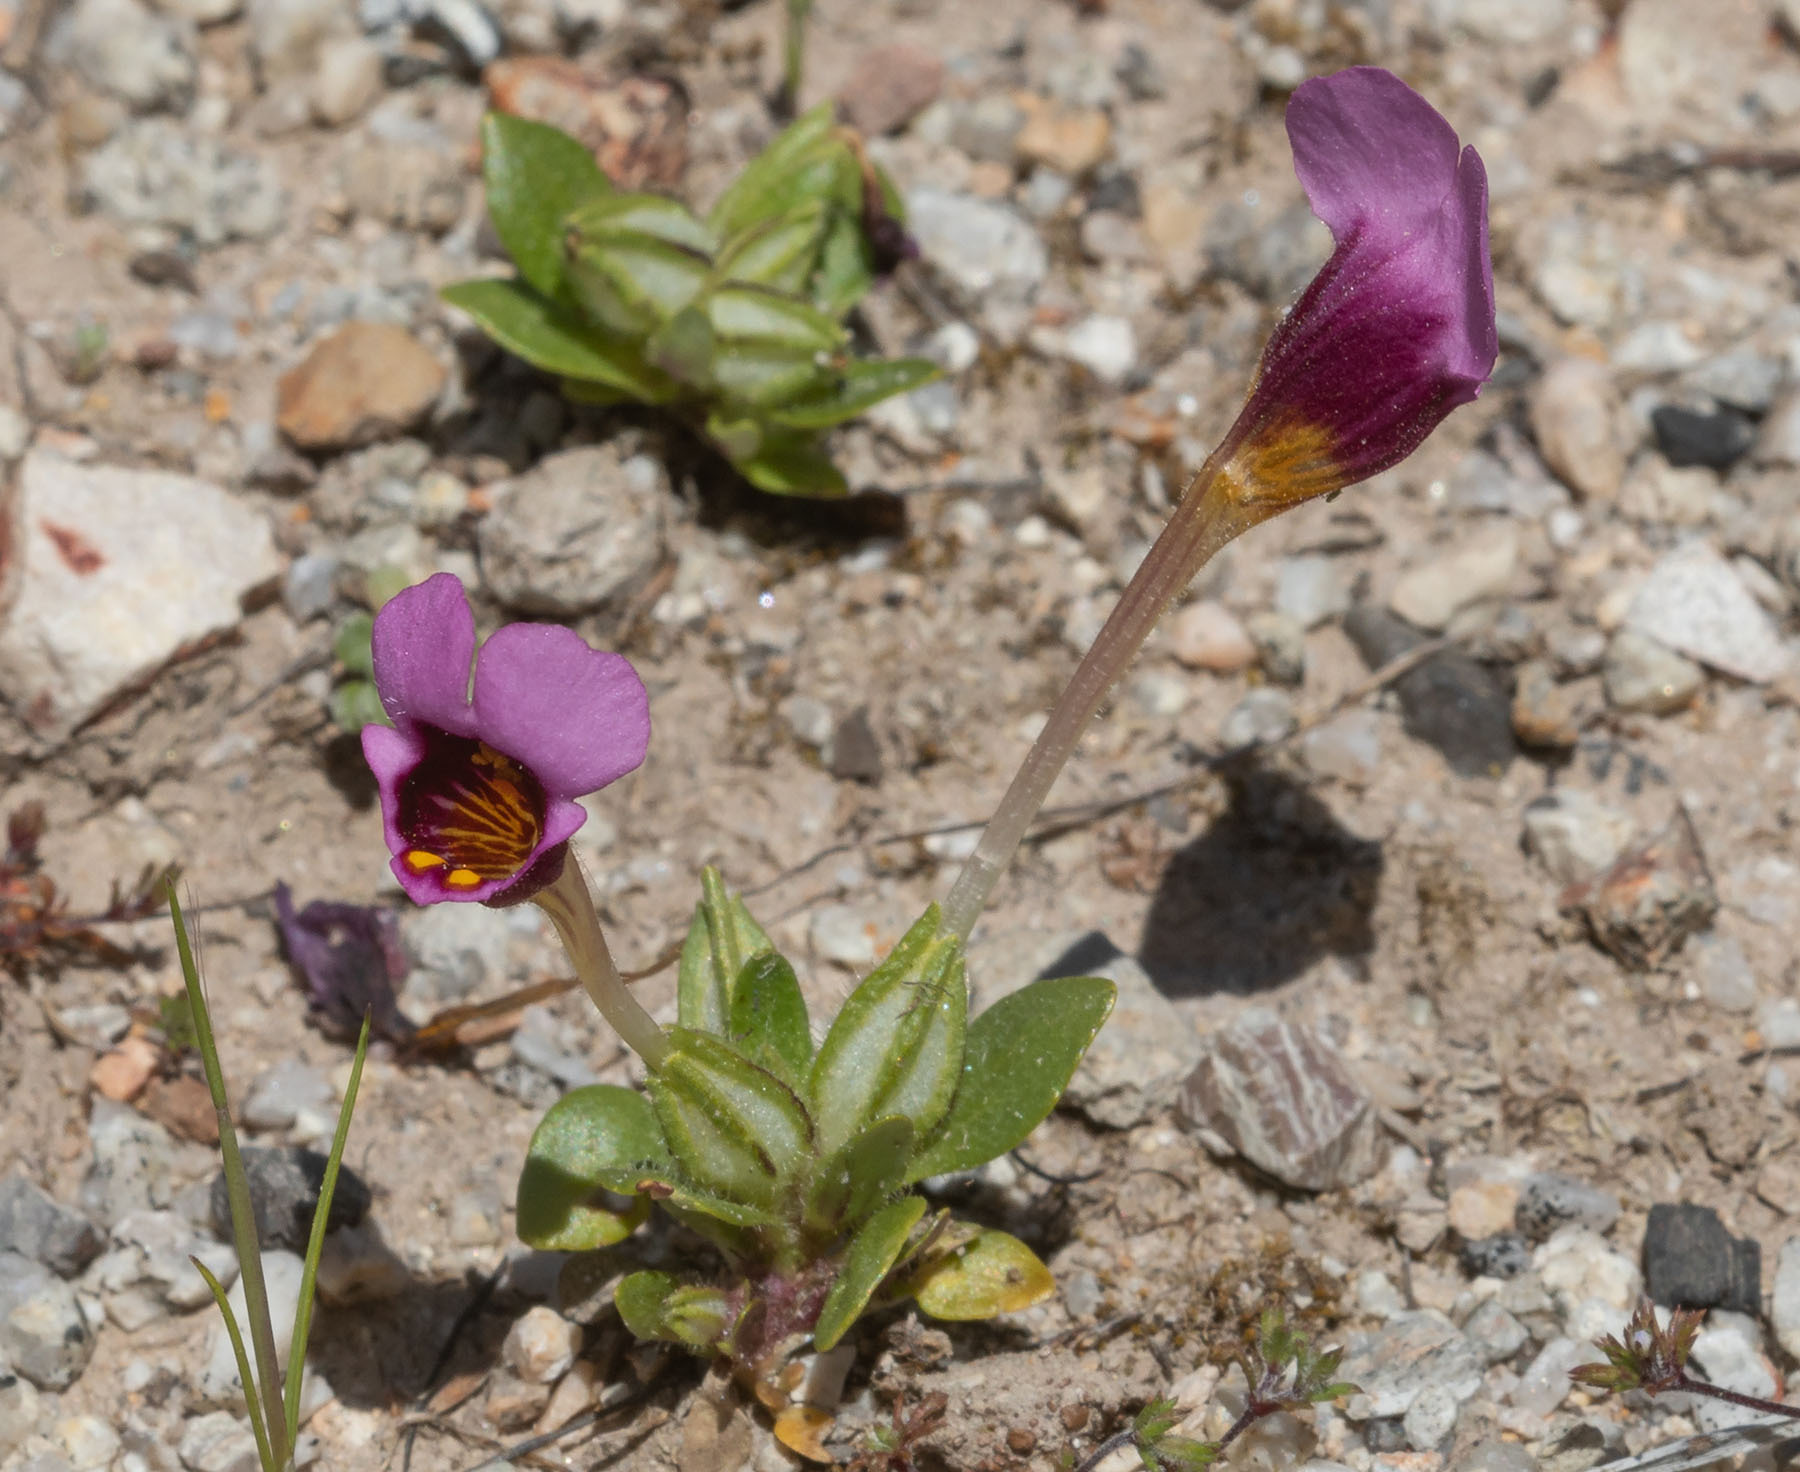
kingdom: Plantae
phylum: Tracheophyta
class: Magnoliopsida
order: Lamiales
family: Phrymaceae
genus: Diplacus
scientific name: Diplacus douglasii
